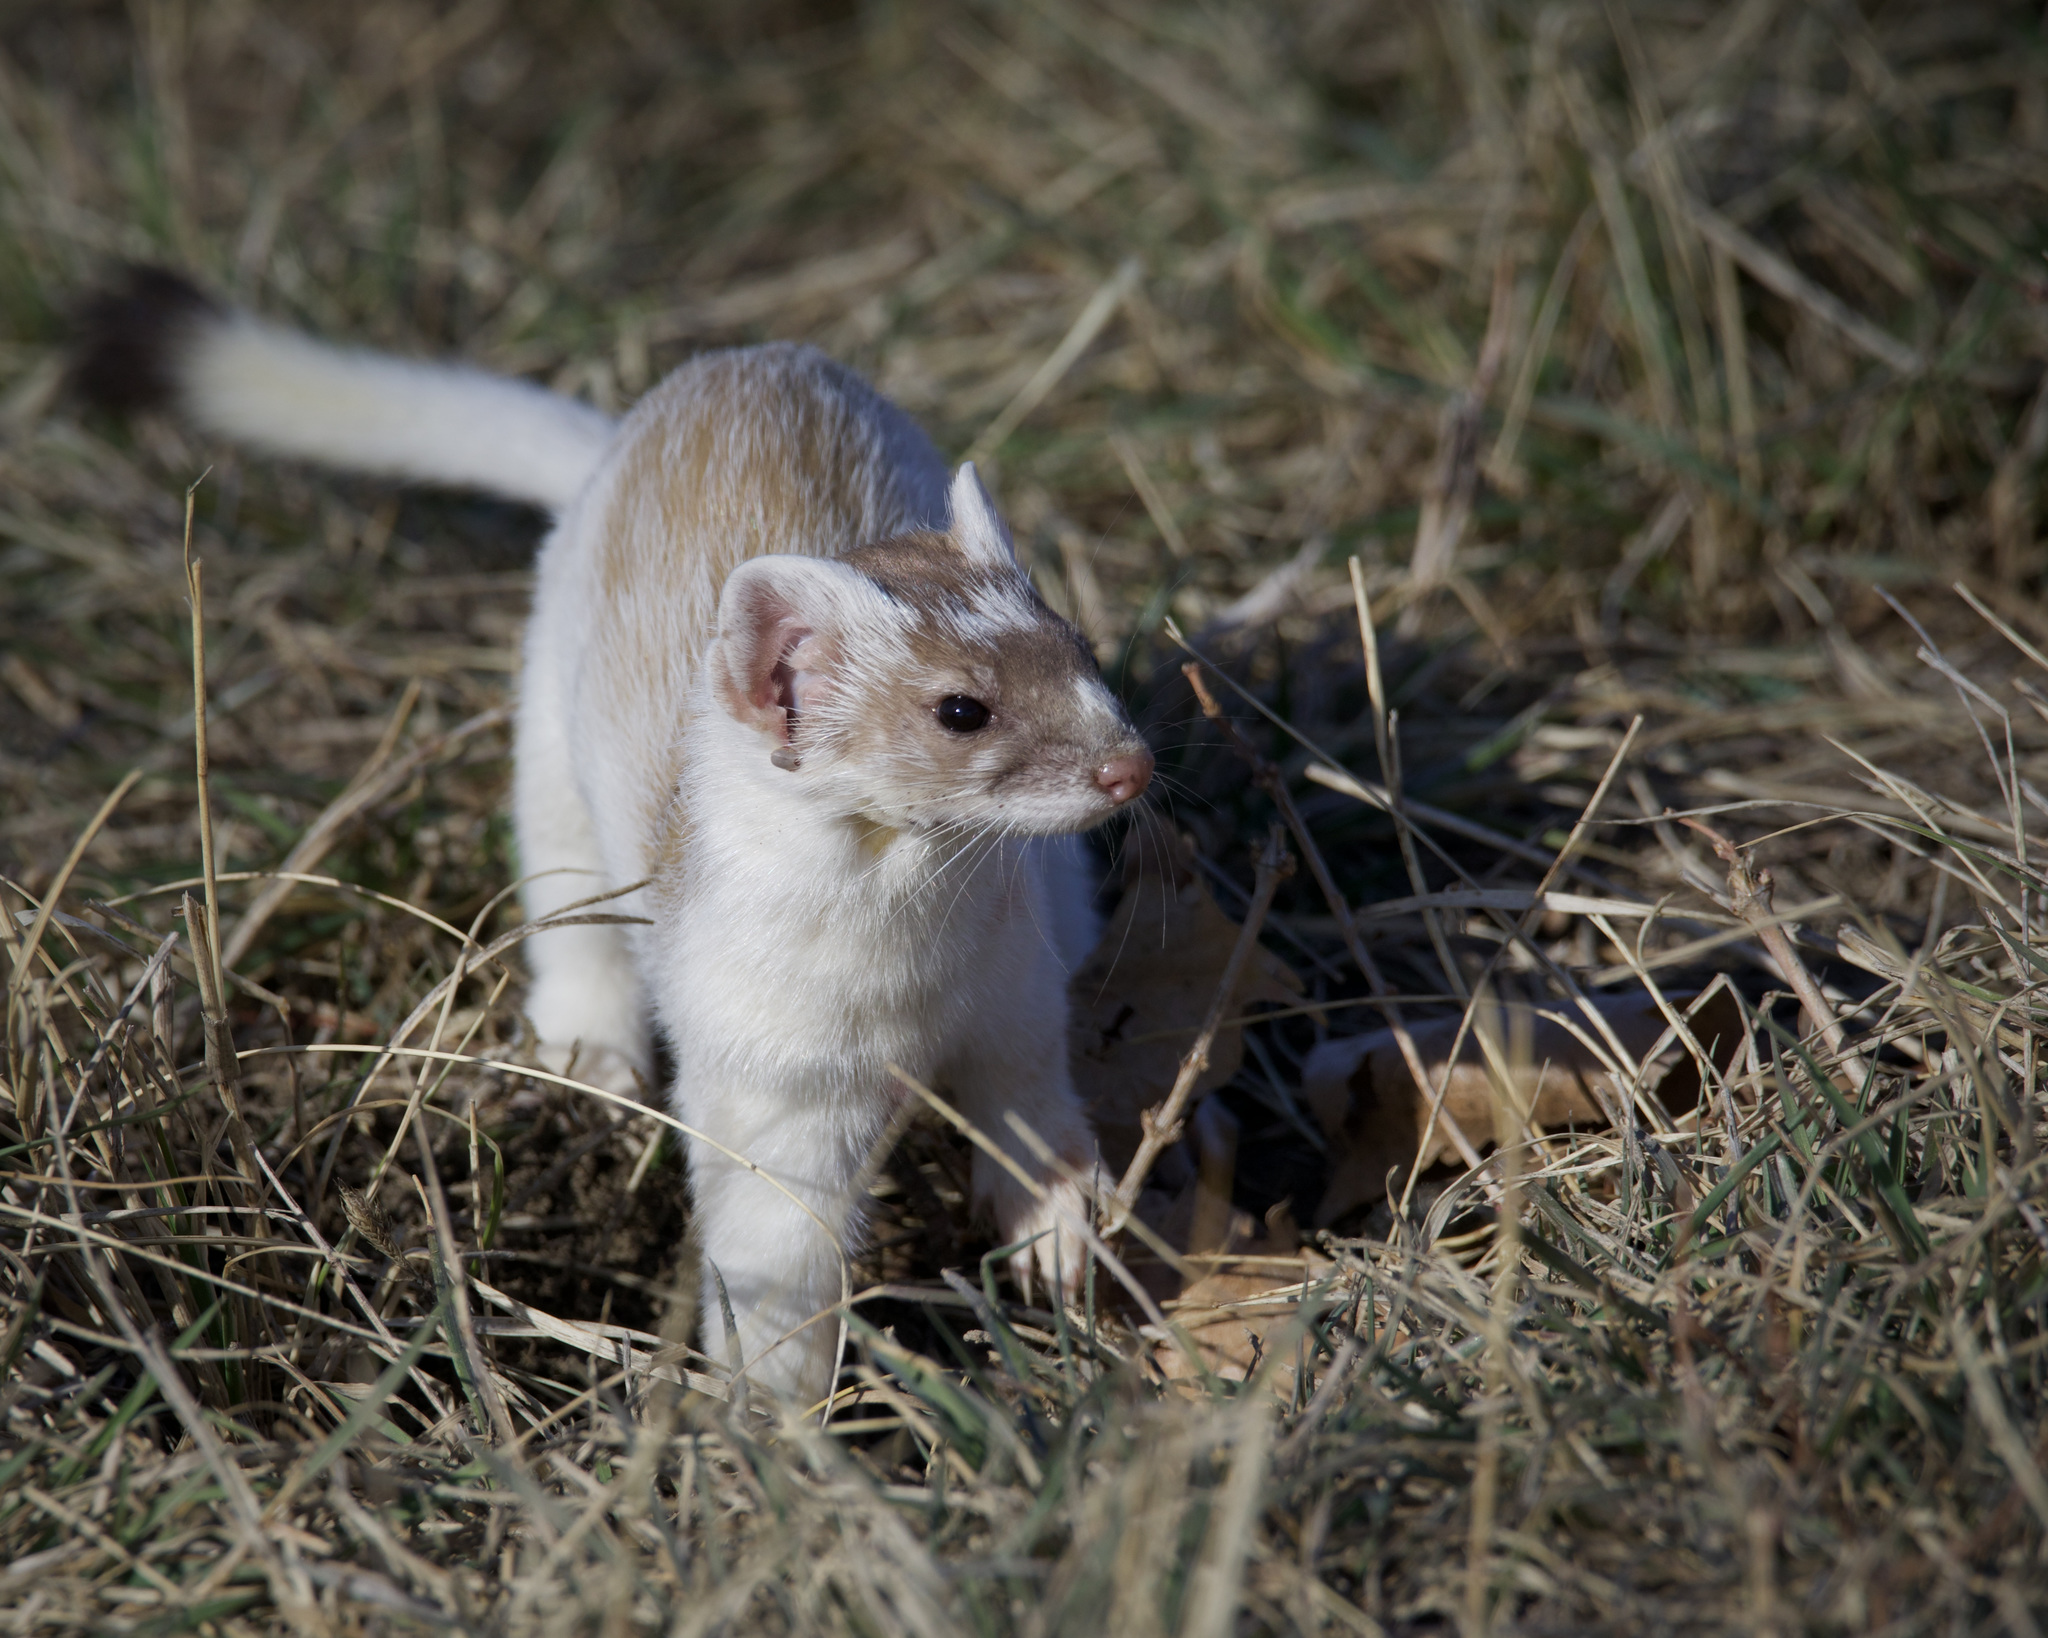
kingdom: Animalia
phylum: Chordata
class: Mammalia
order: Carnivora
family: Mustelidae
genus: Mustela
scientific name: Mustela
